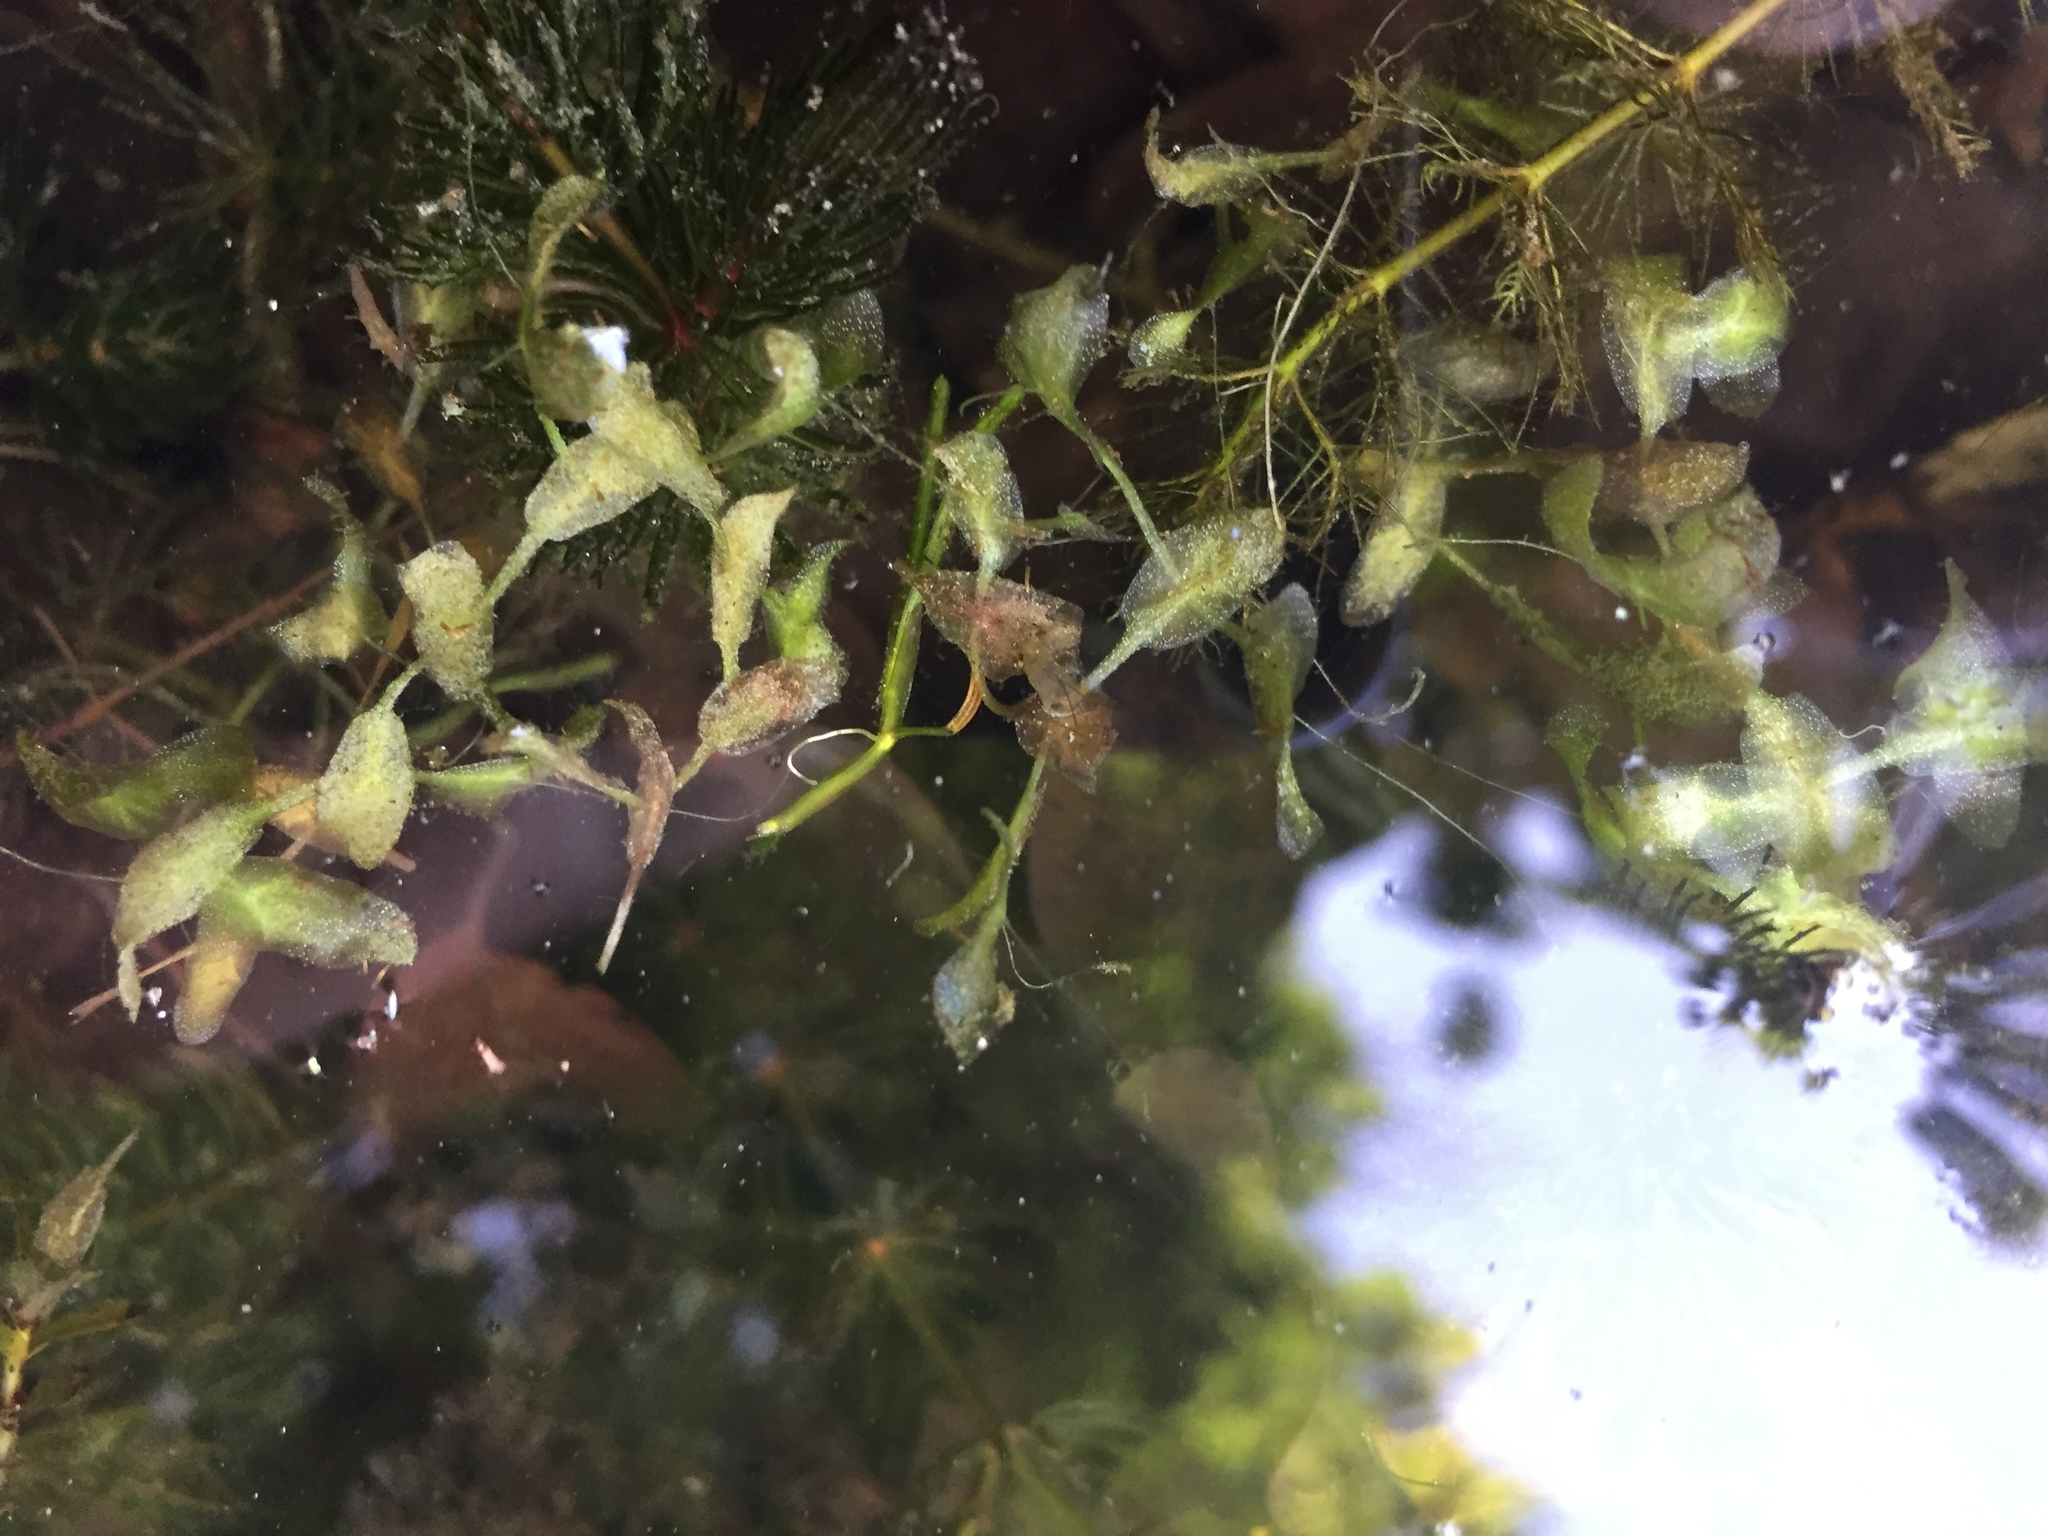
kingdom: Plantae
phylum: Tracheophyta
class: Liliopsida
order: Alismatales
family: Araceae
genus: Lemna
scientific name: Lemna trisulca
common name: Ivy-leaved duckweed
